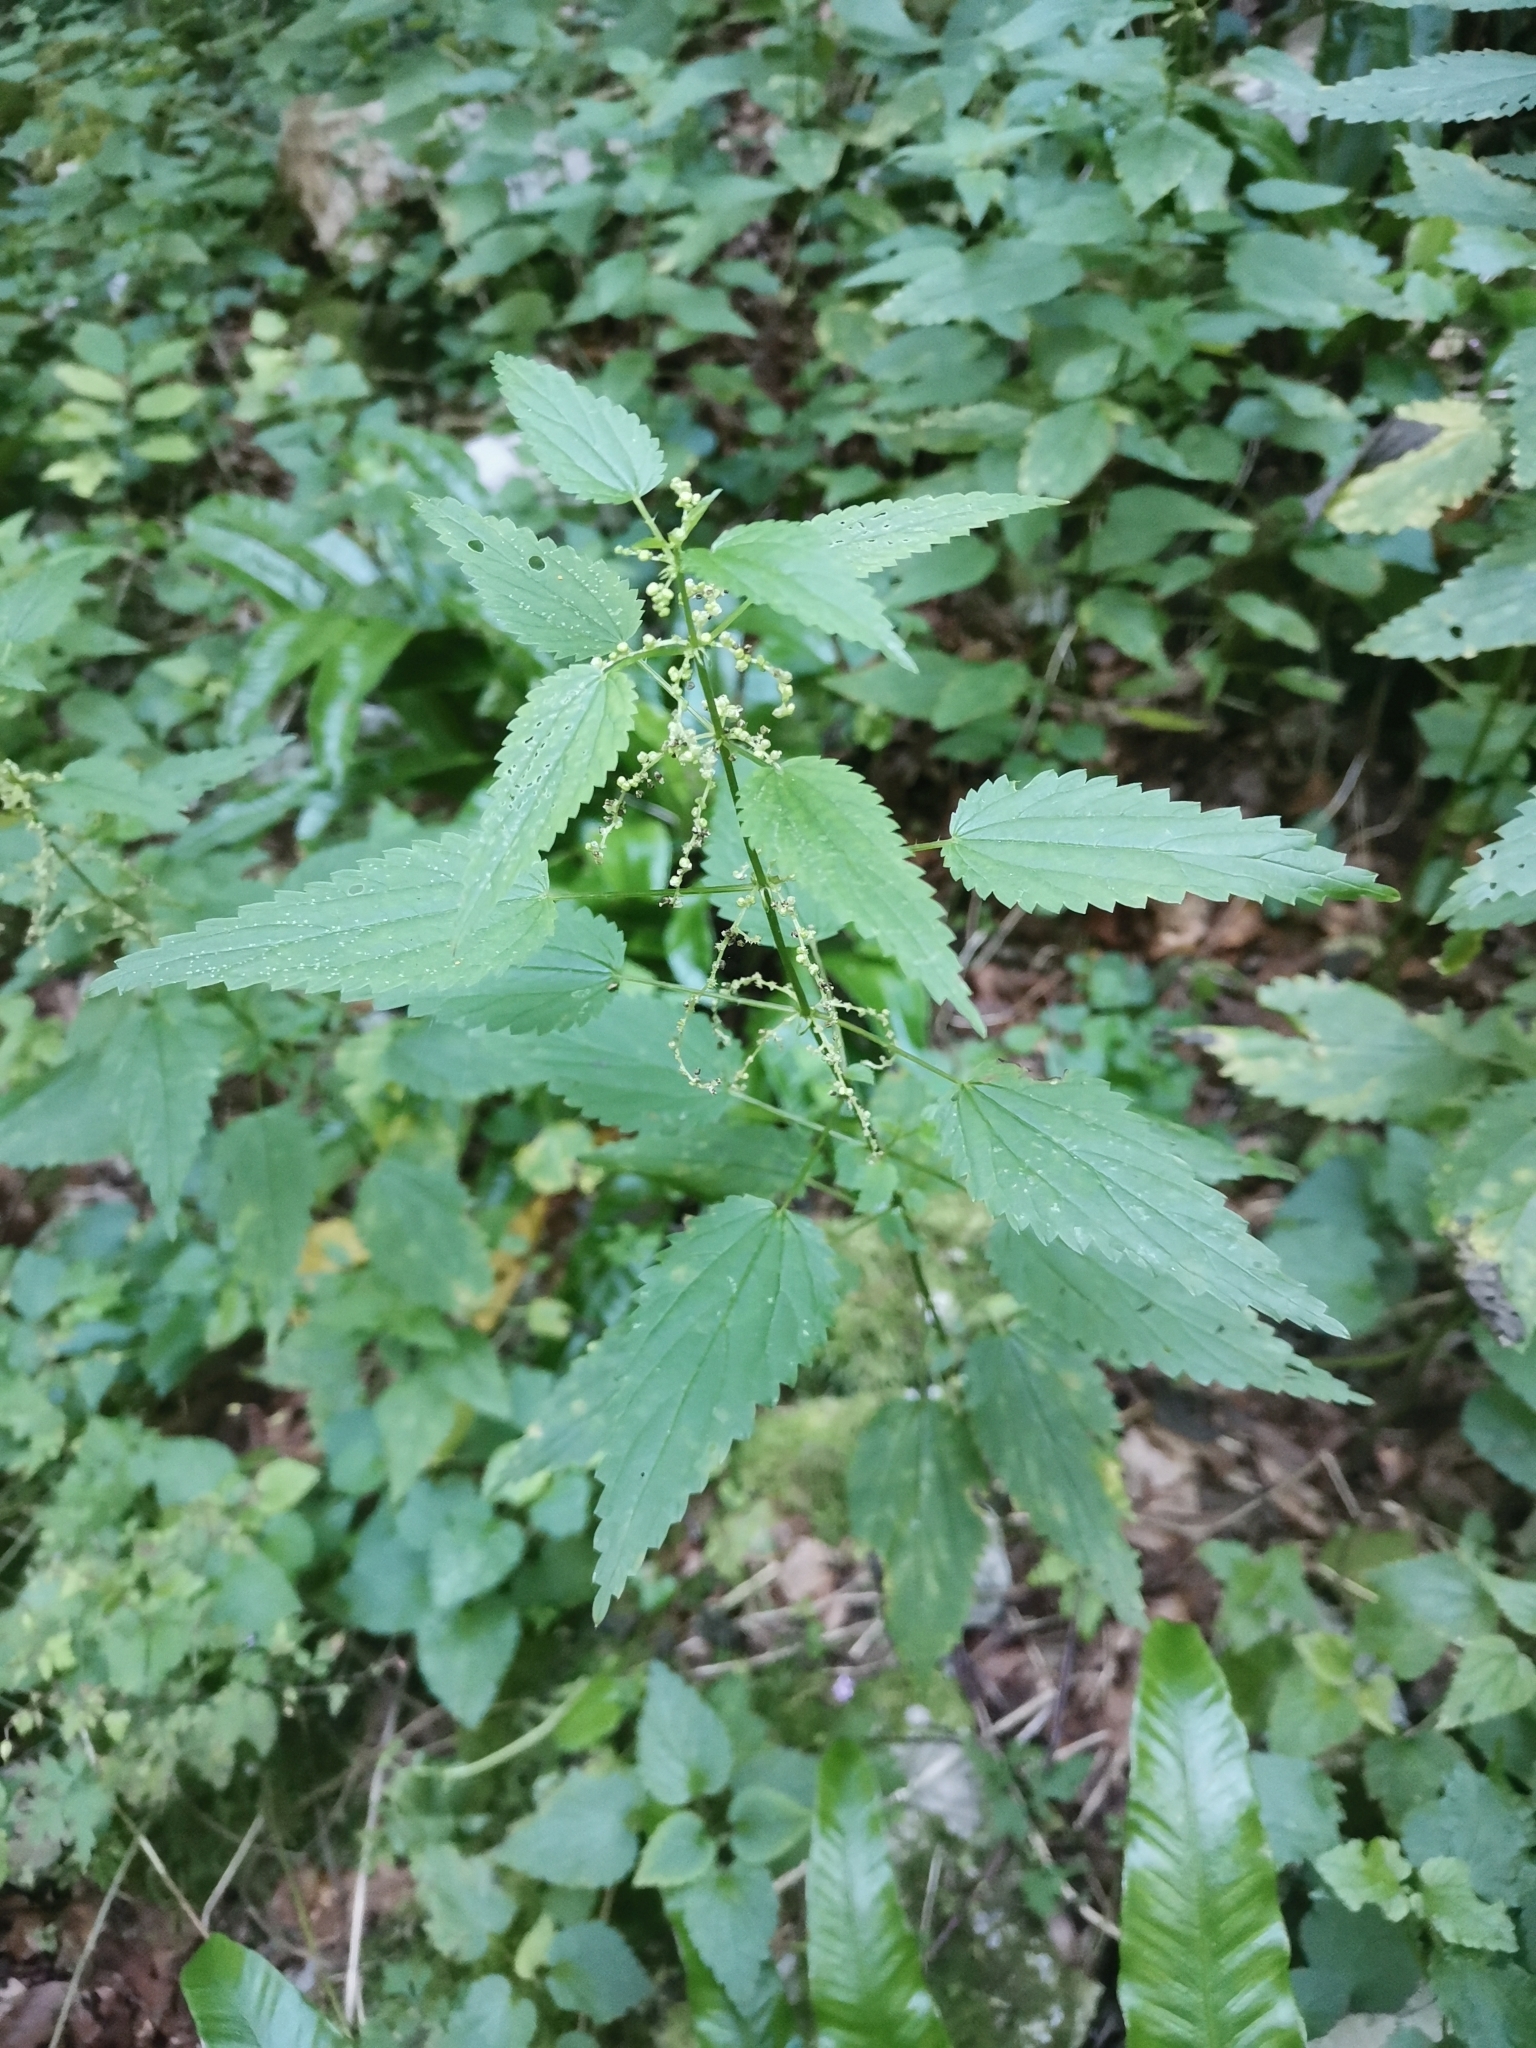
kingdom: Plantae
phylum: Tracheophyta
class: Magnoliopsida
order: Rosales
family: Urticaceae
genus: Urtica
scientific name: Urtica dioica
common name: Common nettle
